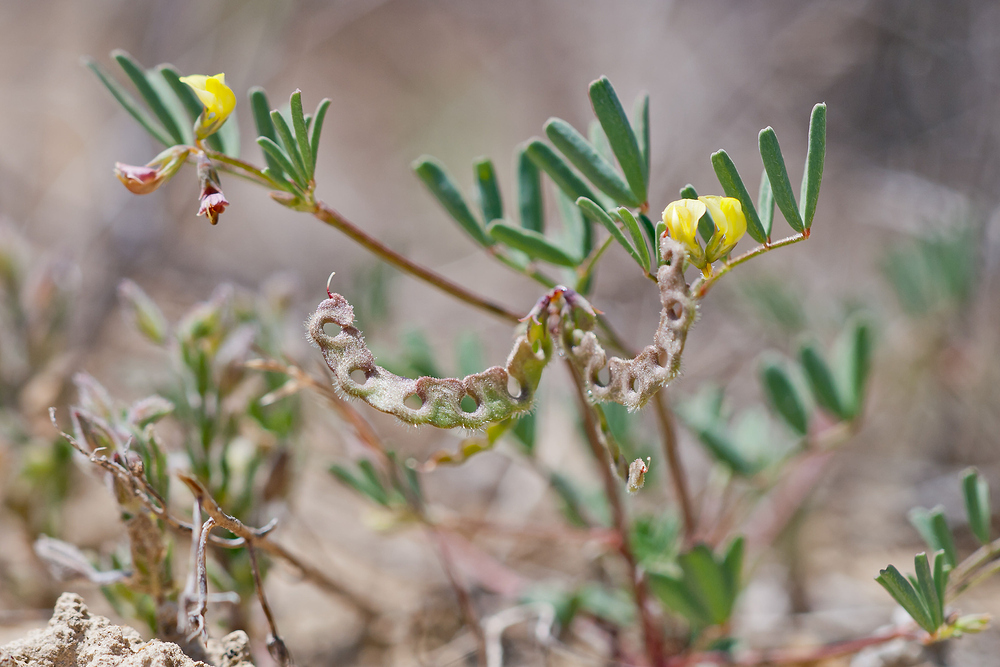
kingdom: Plantae
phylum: Tracheophyta
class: Magnoliopsida
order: Fabales
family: Fabaceae
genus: Hippocrepis
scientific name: Hippocrepis ciliata
